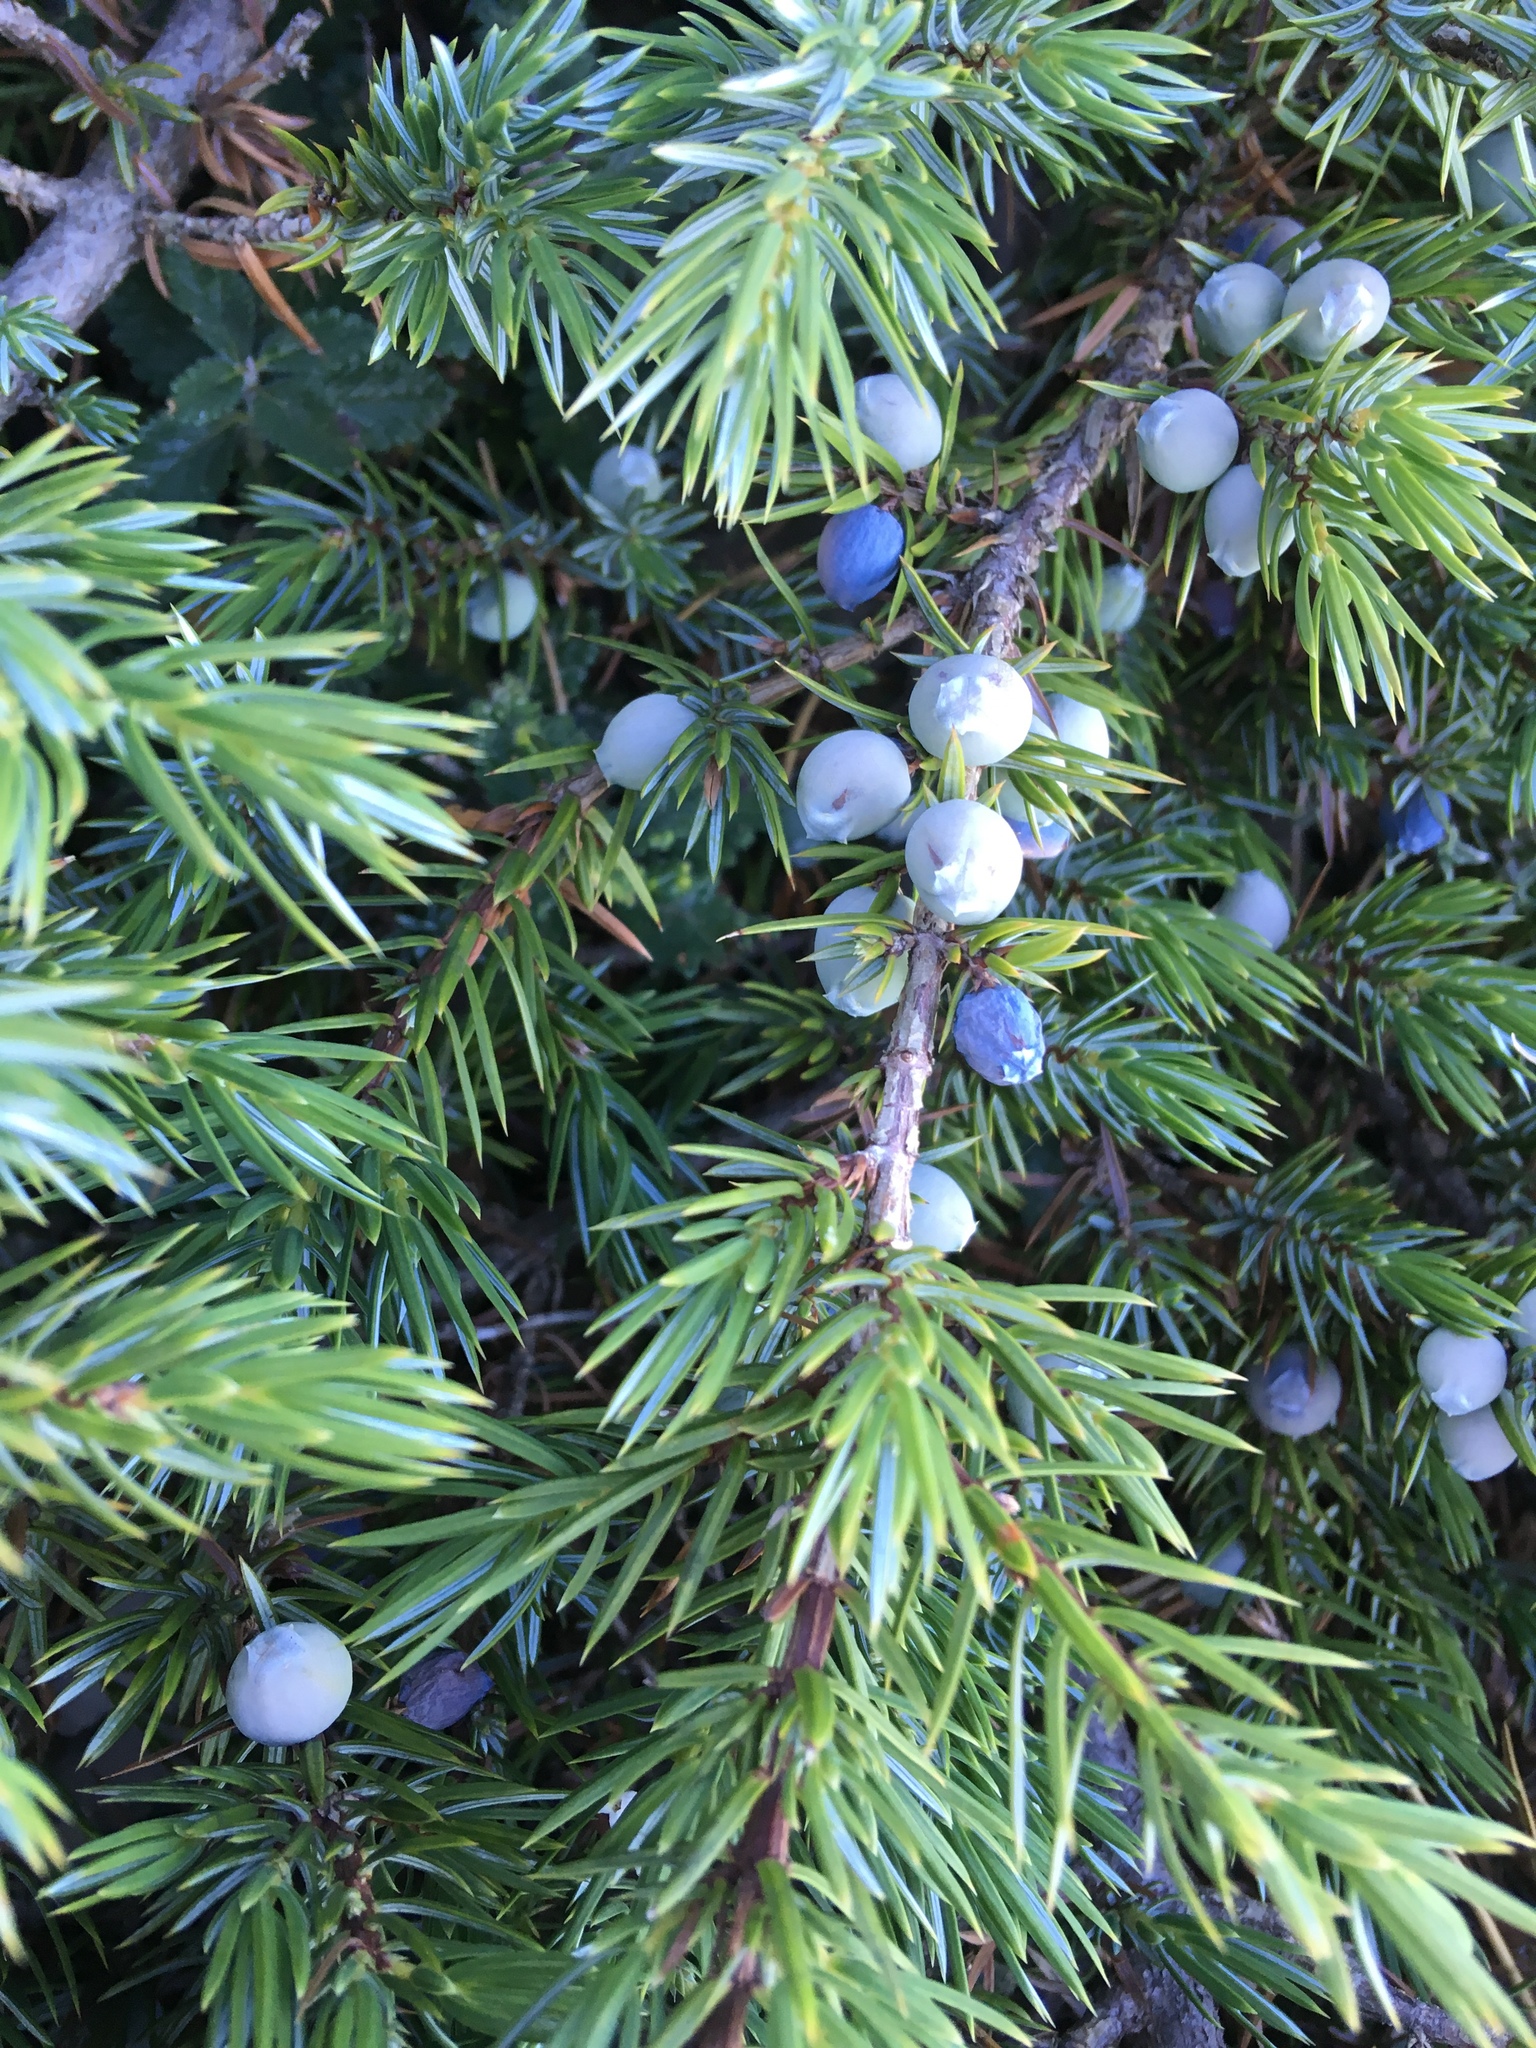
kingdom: Plantae
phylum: Tracheophyta
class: Pinopsida
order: Pinales
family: Cupressaceae
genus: Juniperus
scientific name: Juniperus communis
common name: Common juniper
